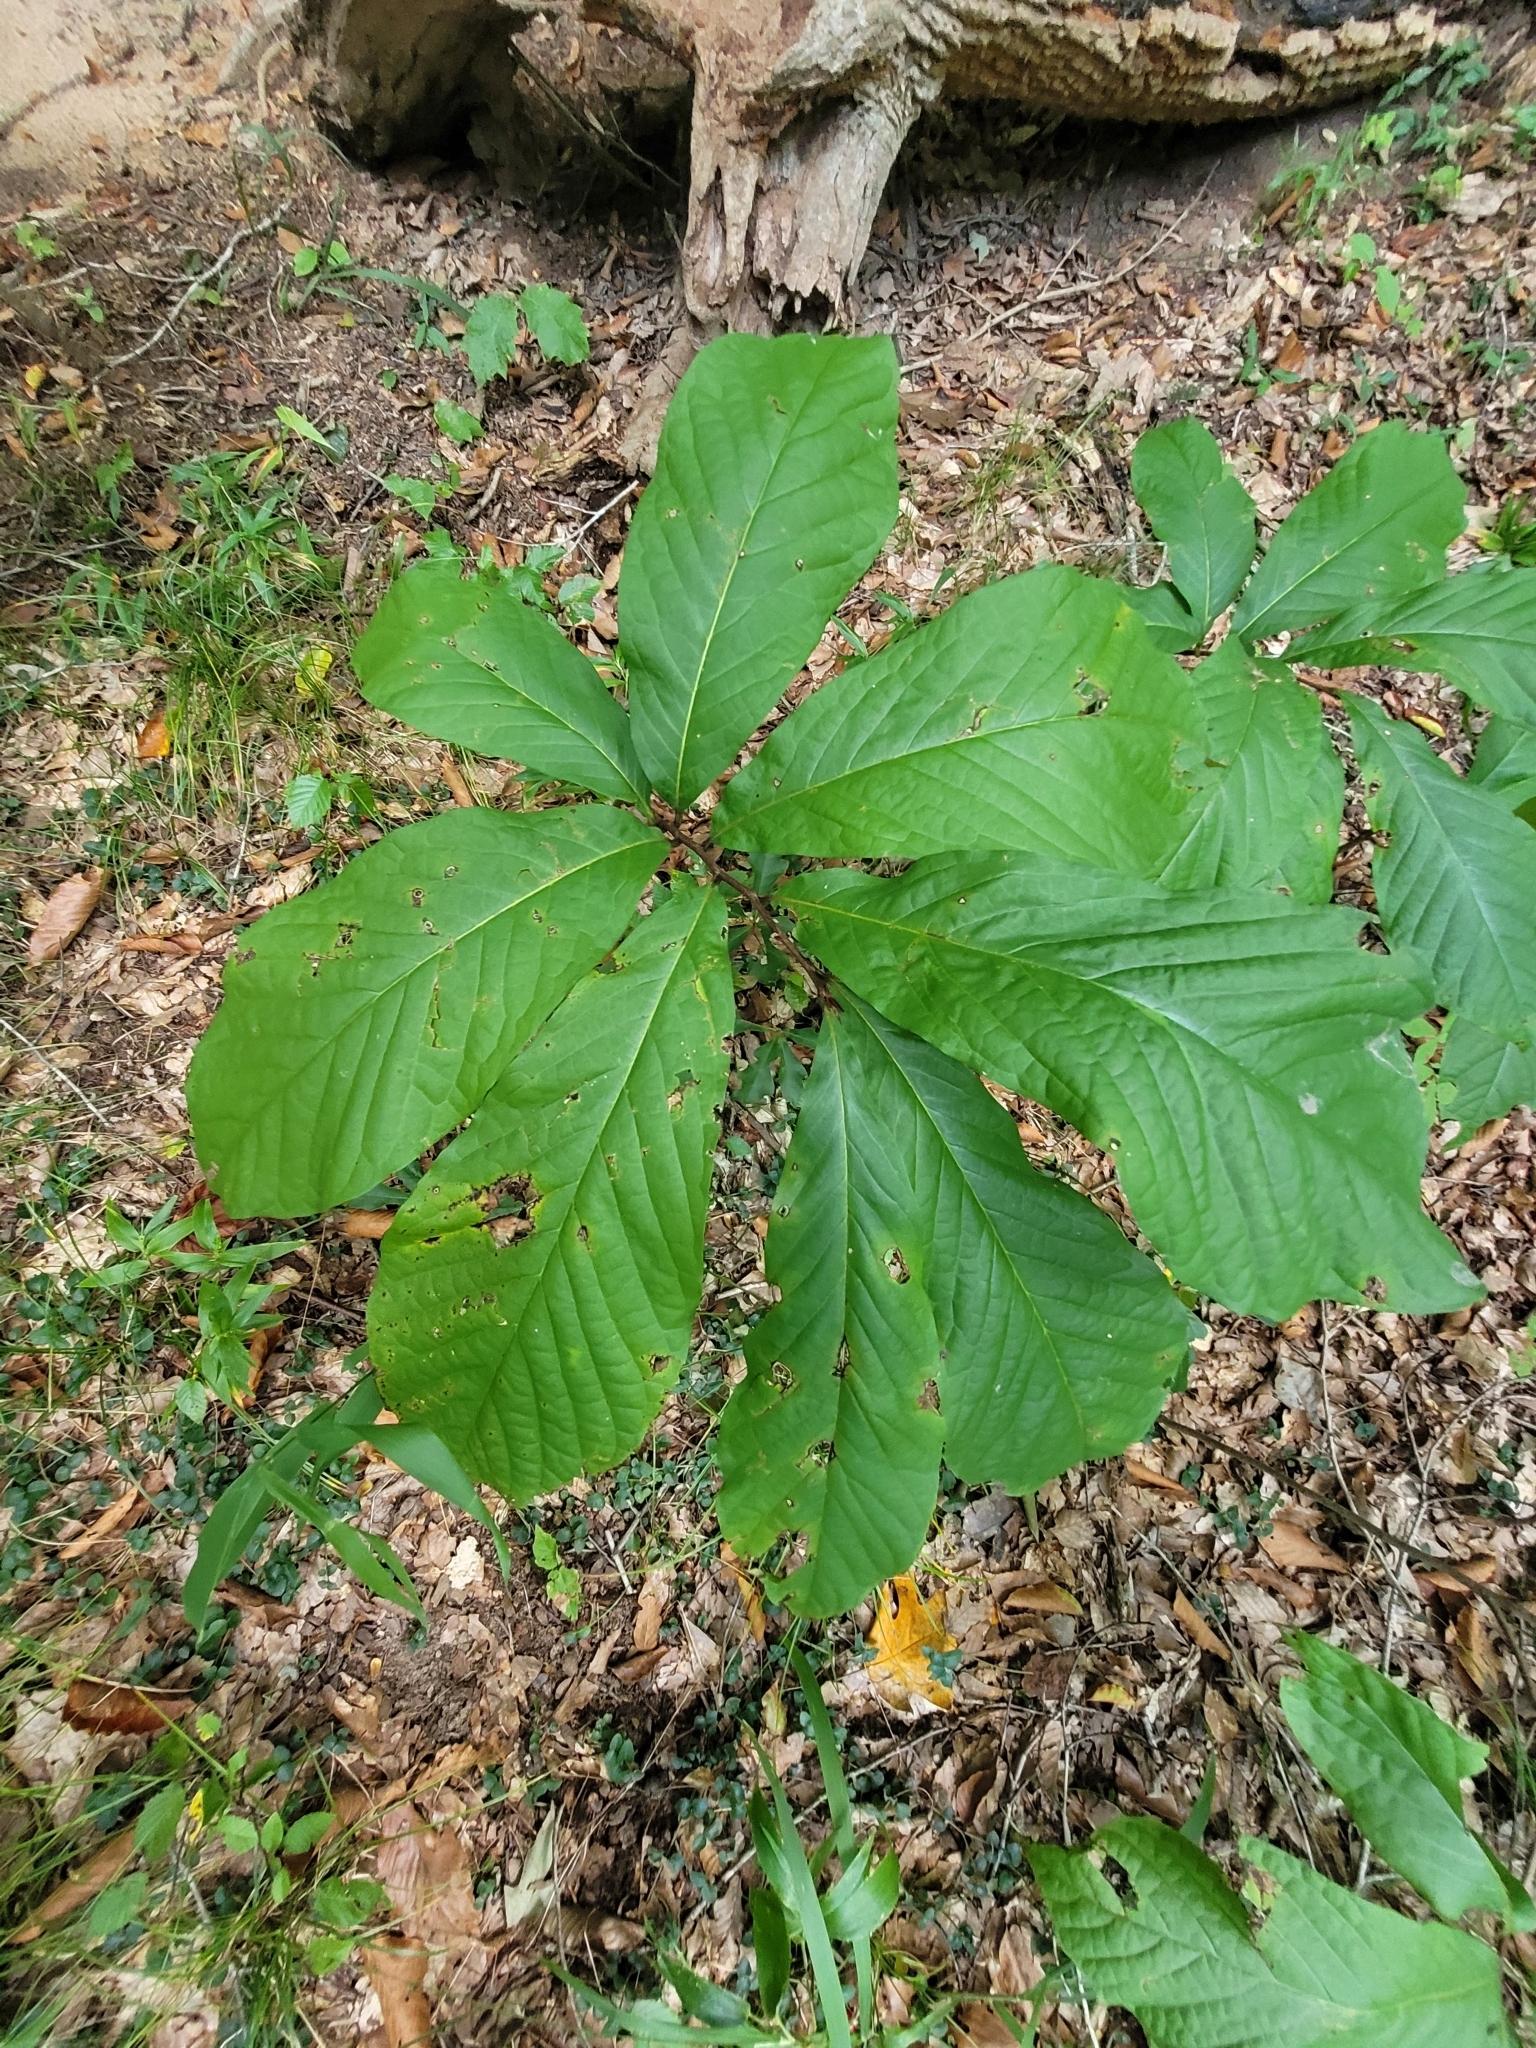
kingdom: Plantae
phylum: Tracheophyta
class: Magnoliopsida
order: Magnoliales
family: Annonaceae
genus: Asimina
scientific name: Asimina triloba
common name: Dog-banana
